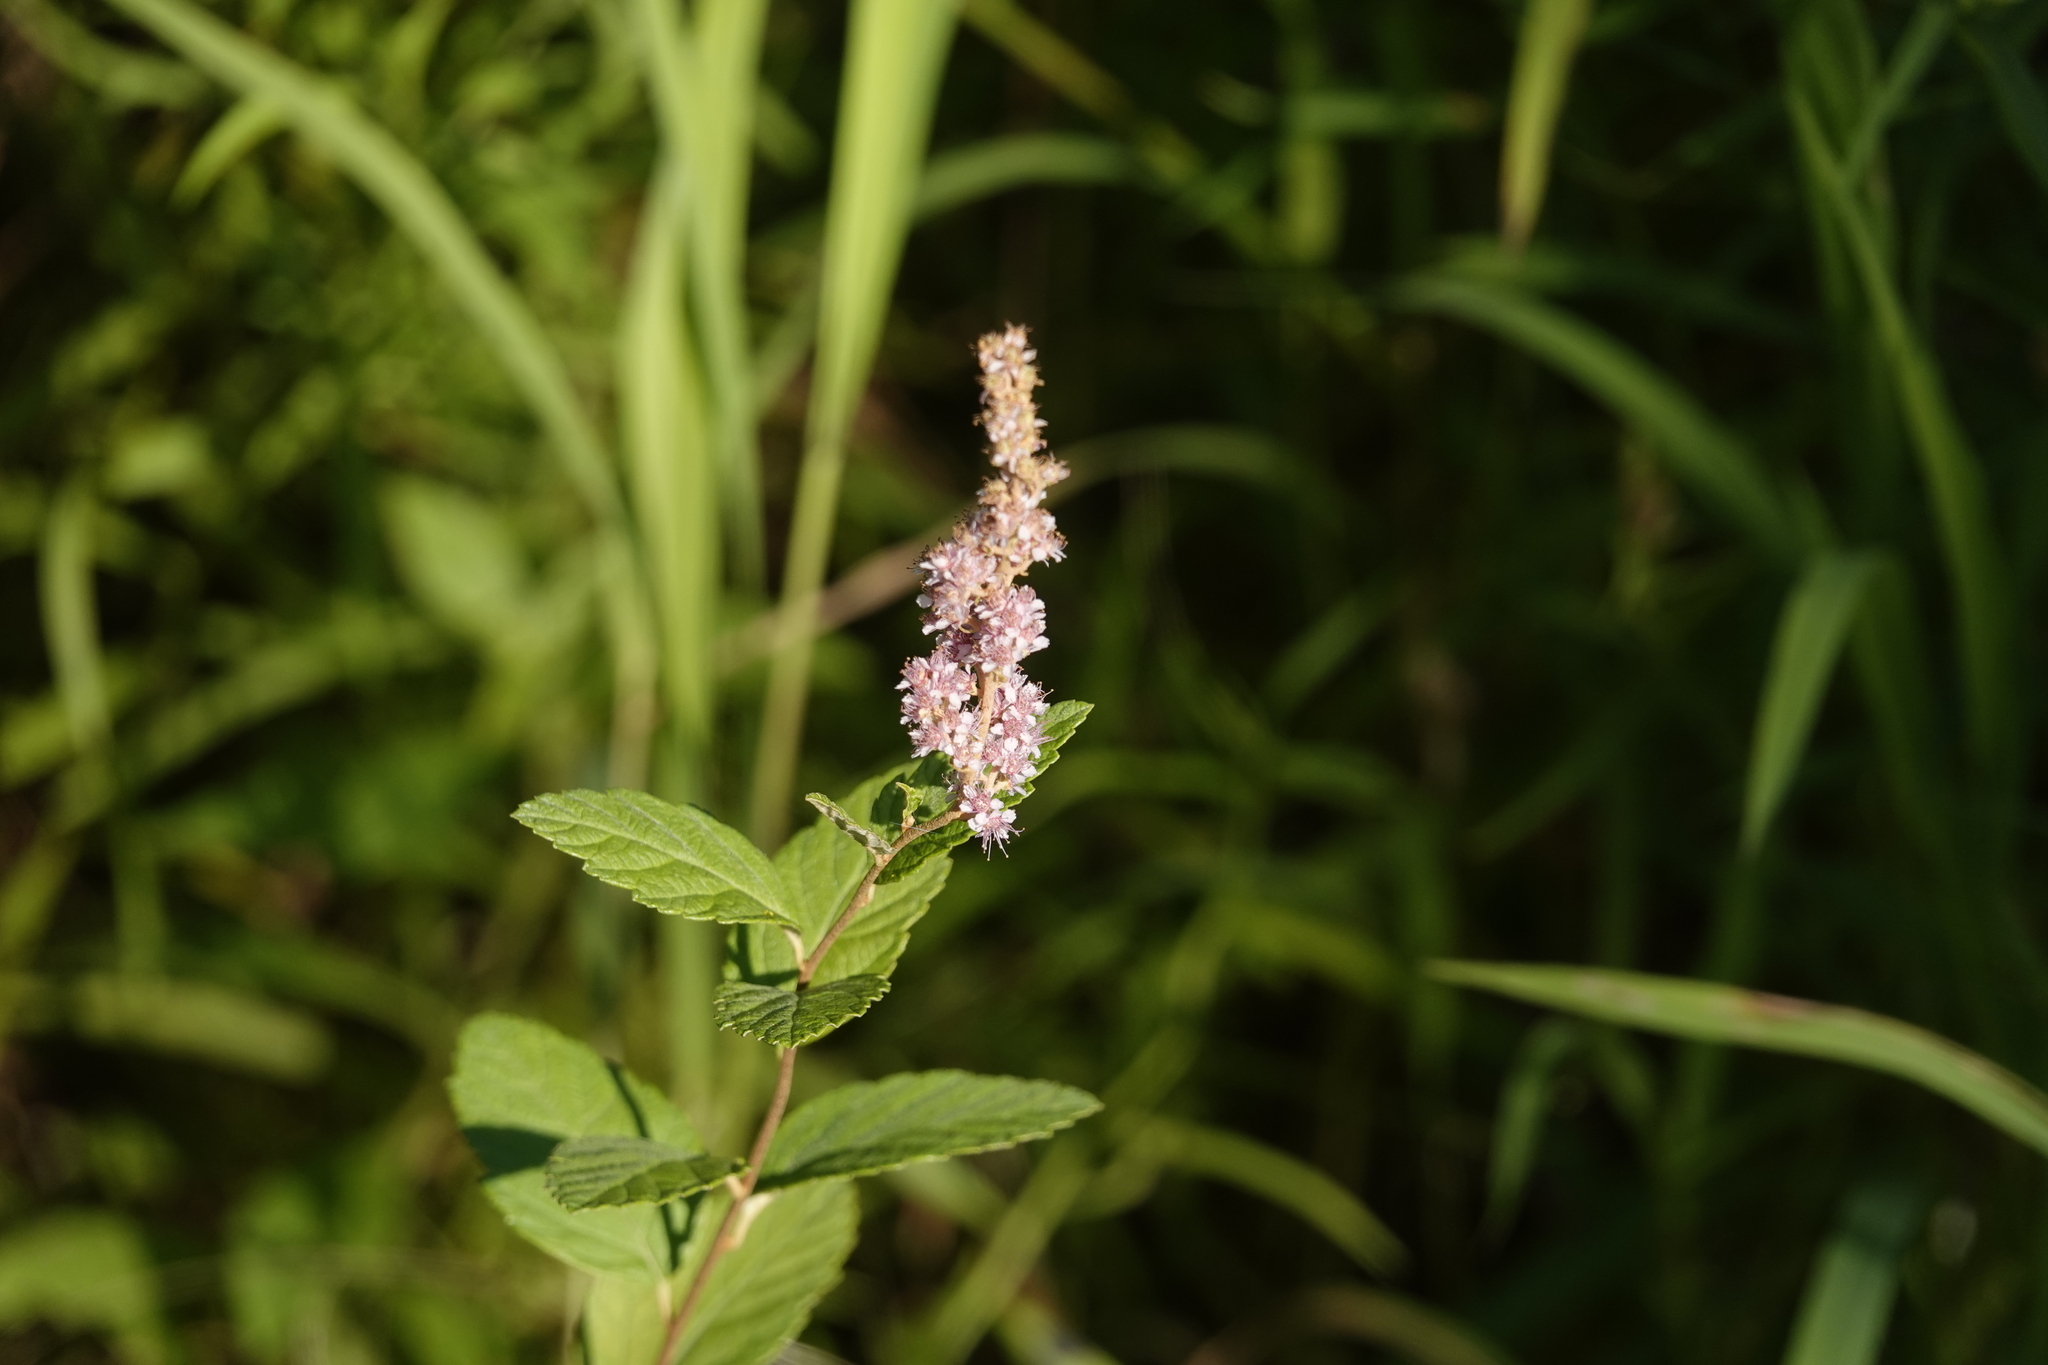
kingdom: Plantae
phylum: Tracheophyta
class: Magnoliopsida
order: Rosales
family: Rosaceae
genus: Spiraea
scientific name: Spiraea tomentosa
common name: Hardhack
